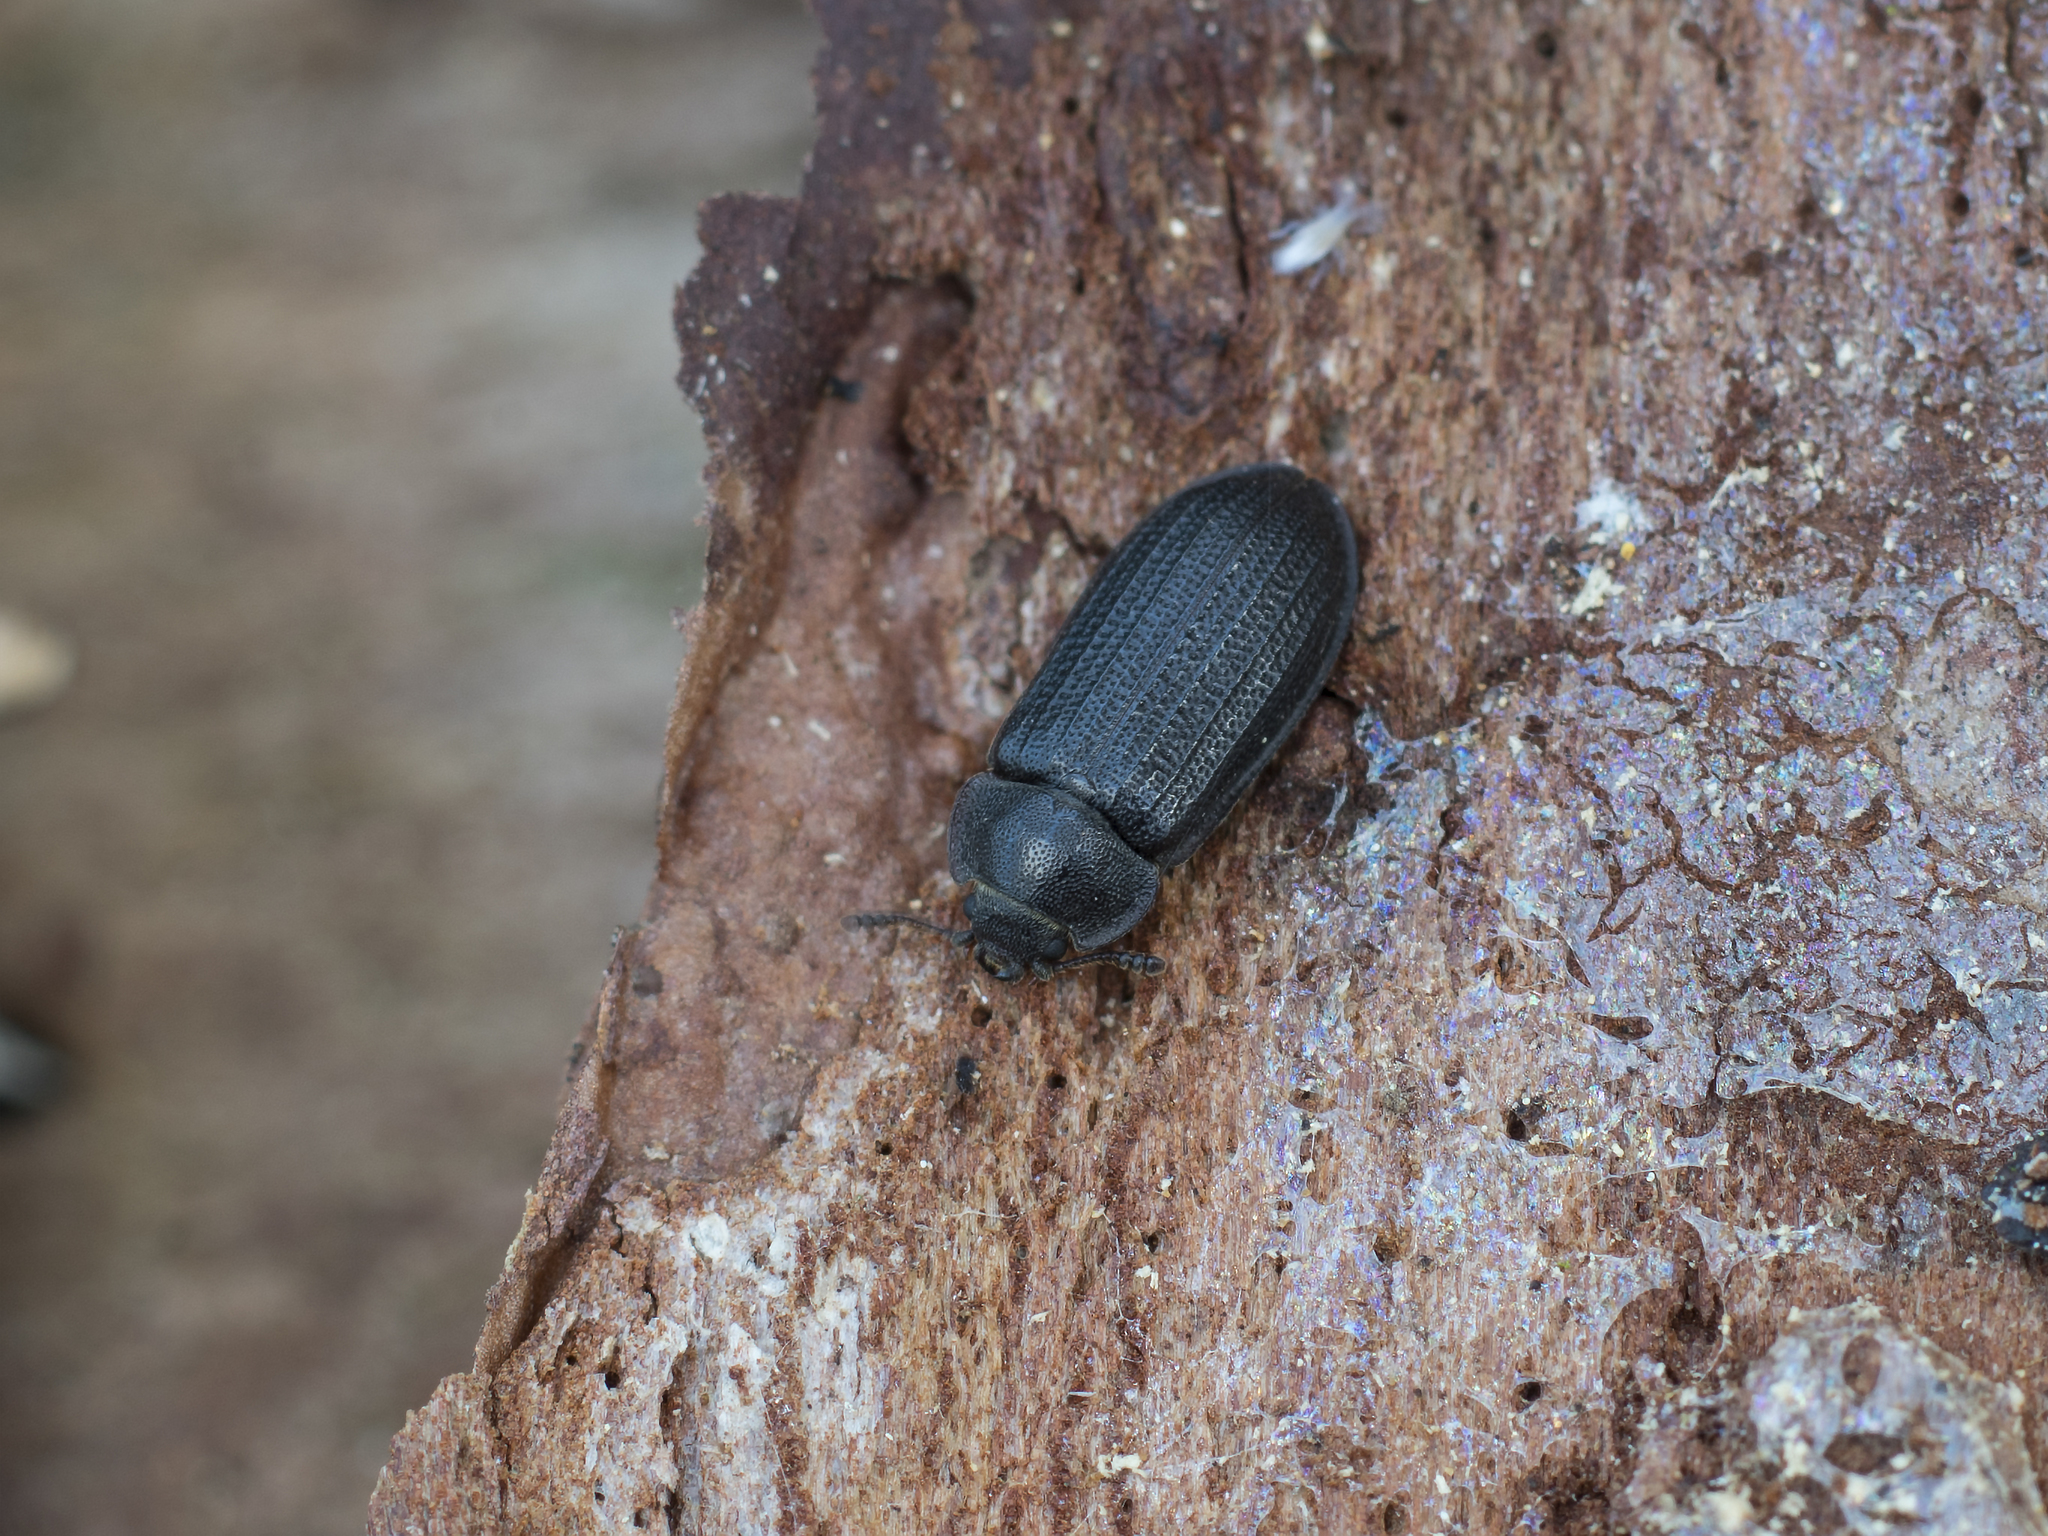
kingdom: Animalia
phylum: Arthropoda
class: Insecta
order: Coleoptera
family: Trogossitidae
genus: Grynocharis
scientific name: Grynocharis oblonga
